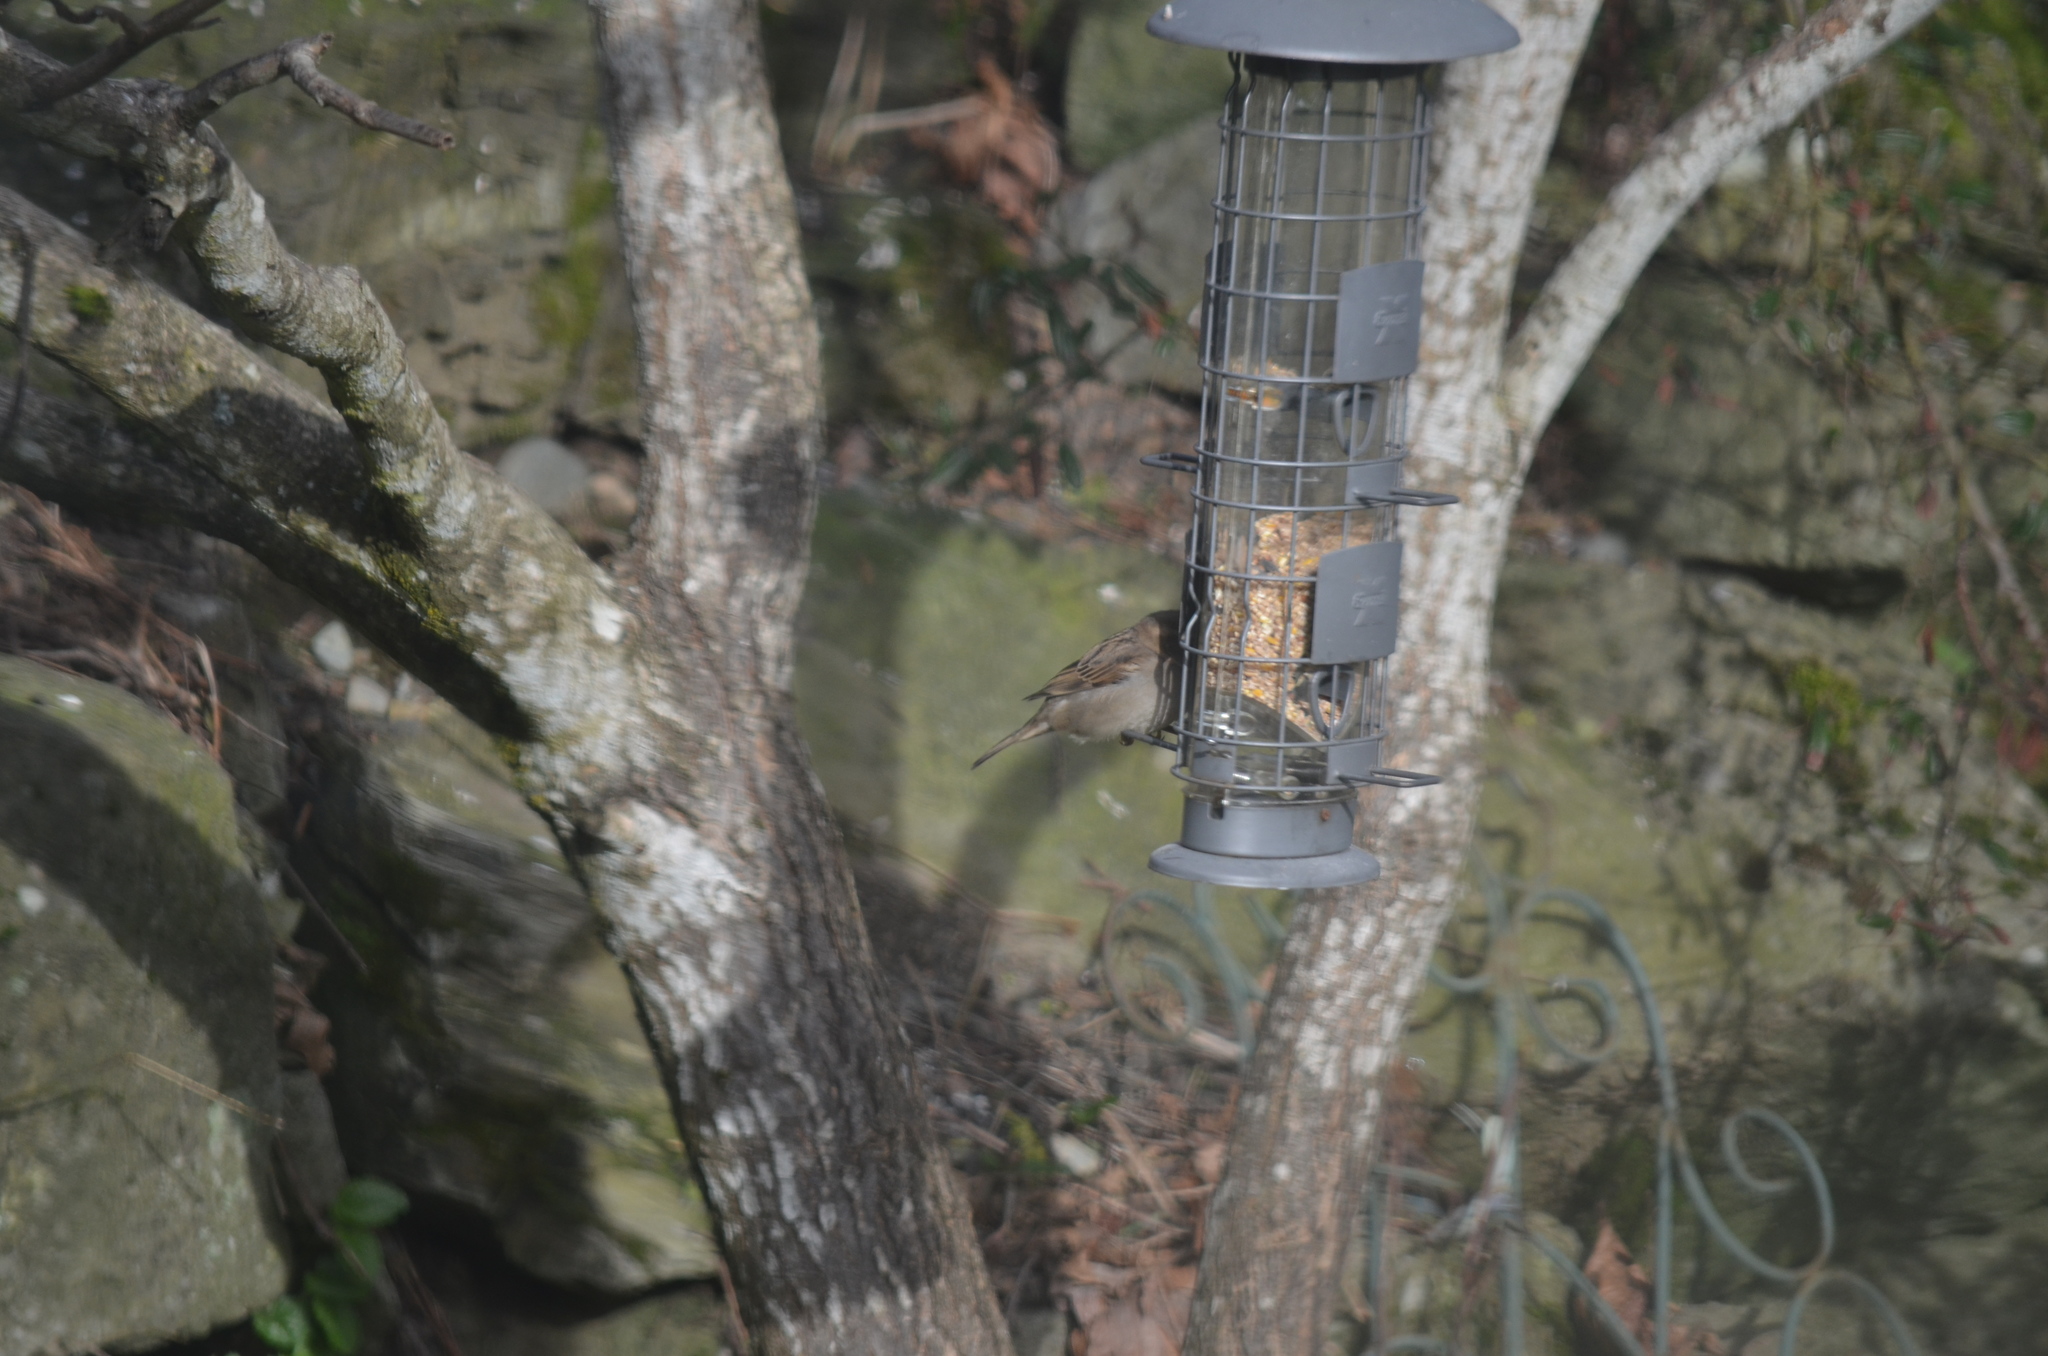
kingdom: Animalia
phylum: Chordata
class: Aves
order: Passeriformes
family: Passeridae
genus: Passer
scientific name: Passer domesticus
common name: House sparrow
